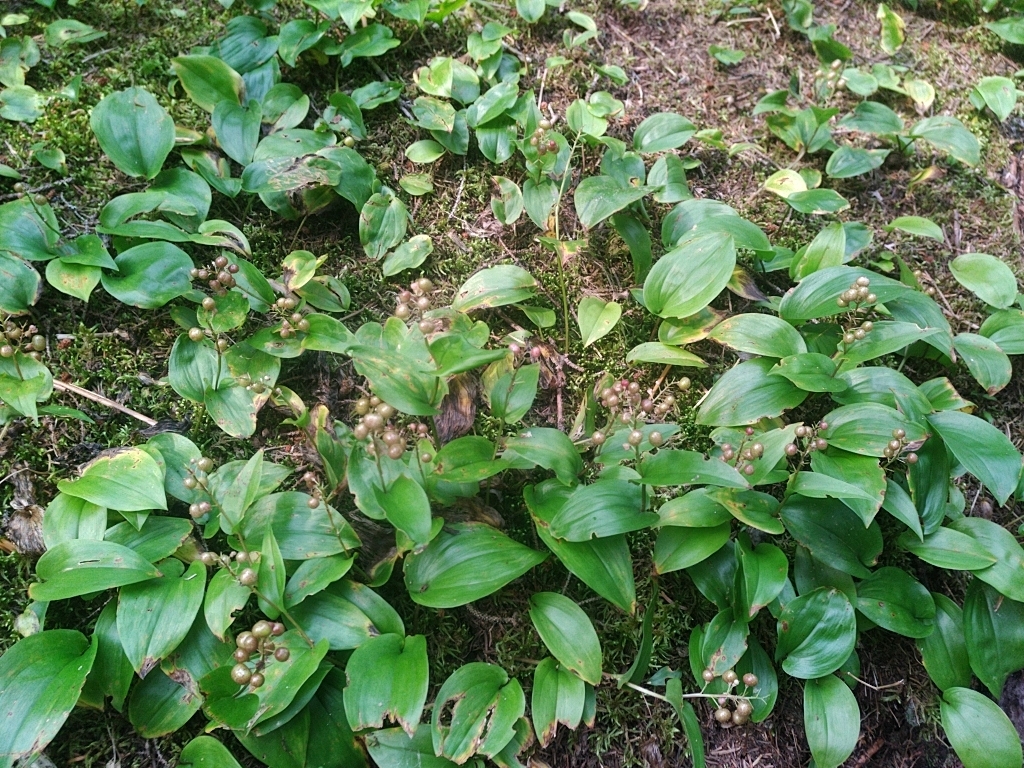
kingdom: Plantae
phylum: Tracheophyta
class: Liliopsida
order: Asparagales
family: Asparagaceae
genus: Maianthemum
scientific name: Maianthemum canadense
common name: False lily-of-the-valley
